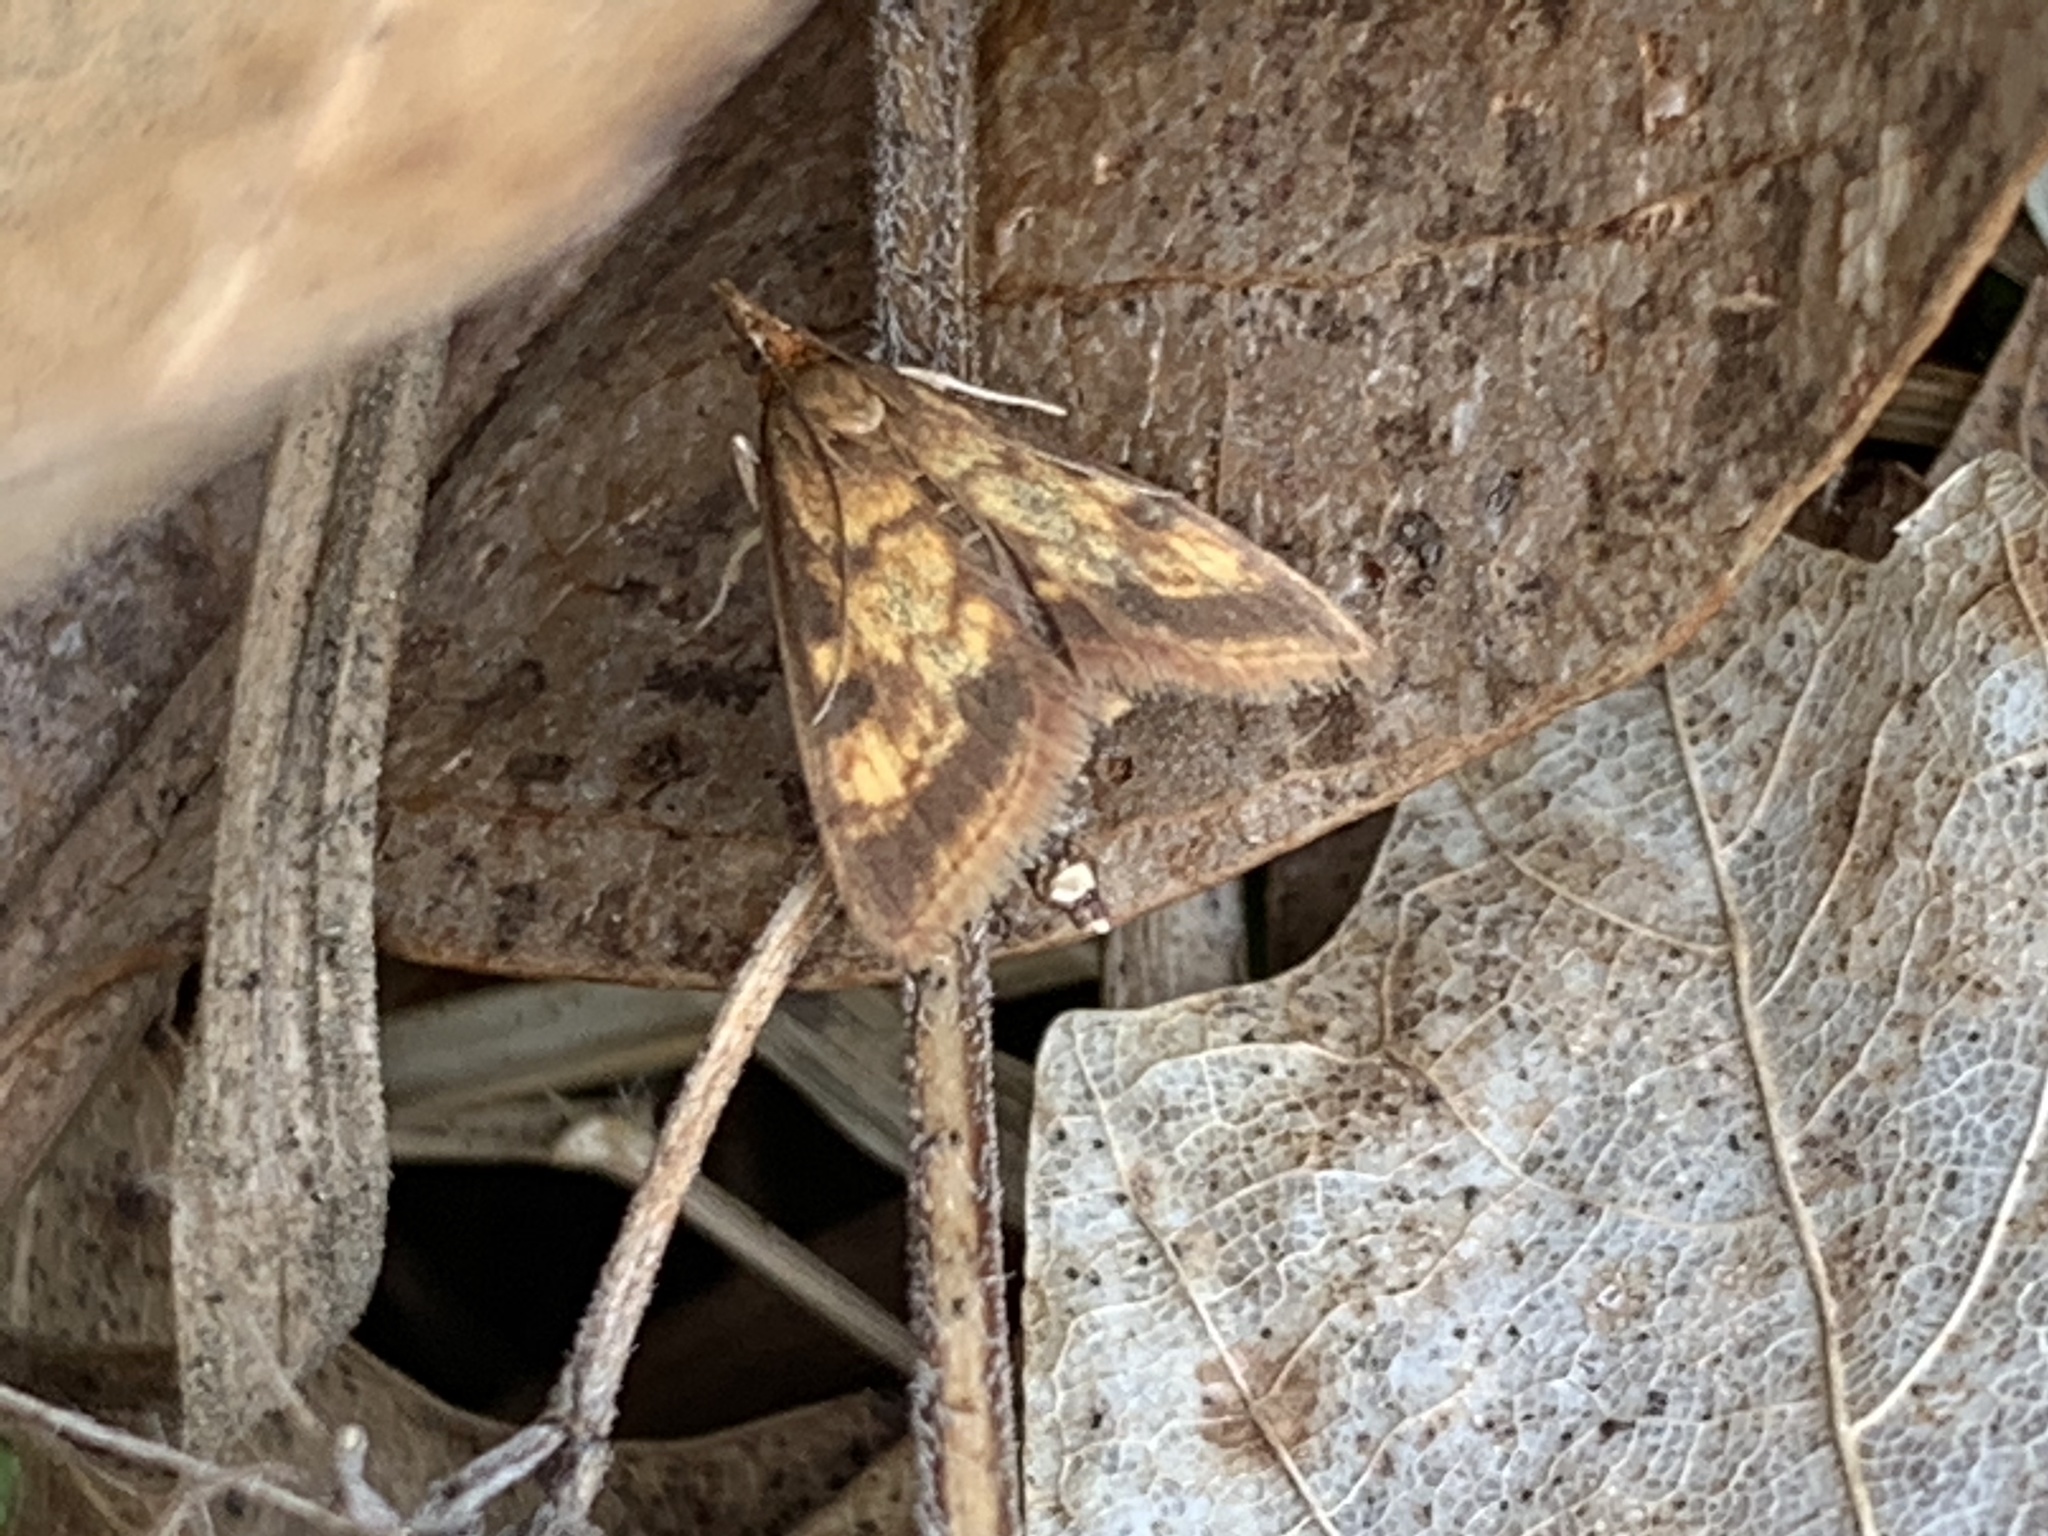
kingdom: Animalia
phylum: Arthropoda
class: Insecta
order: Lepidoptera
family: Crambidae
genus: Pyrausta
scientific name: Pyrausta acrionalis
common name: Mint-loving pyrausta moth
